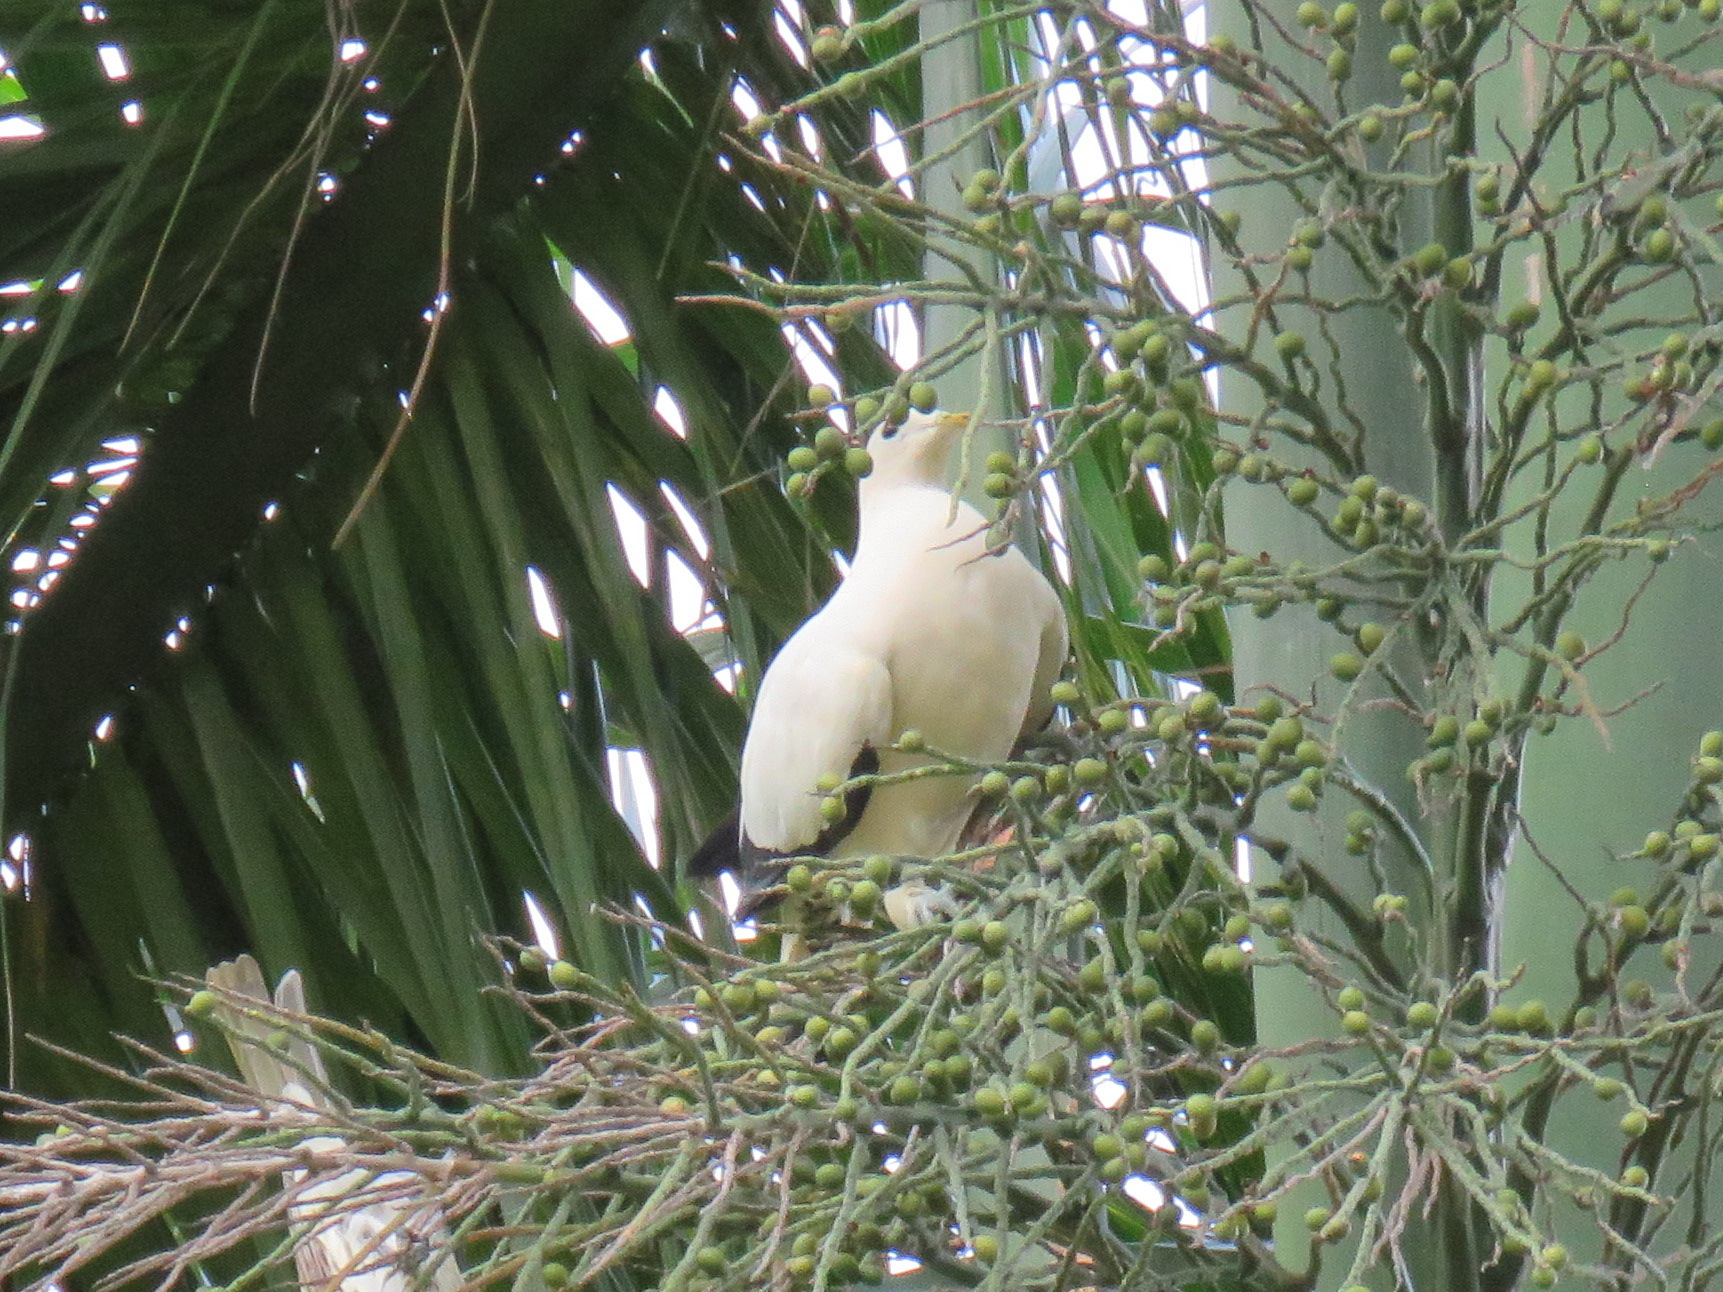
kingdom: Animalia
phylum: Chordata
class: Aves
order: Columbiformes
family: Columbidae
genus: Ducula
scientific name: Ducula spilorrhoa
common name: Torresian imperial pigeon
